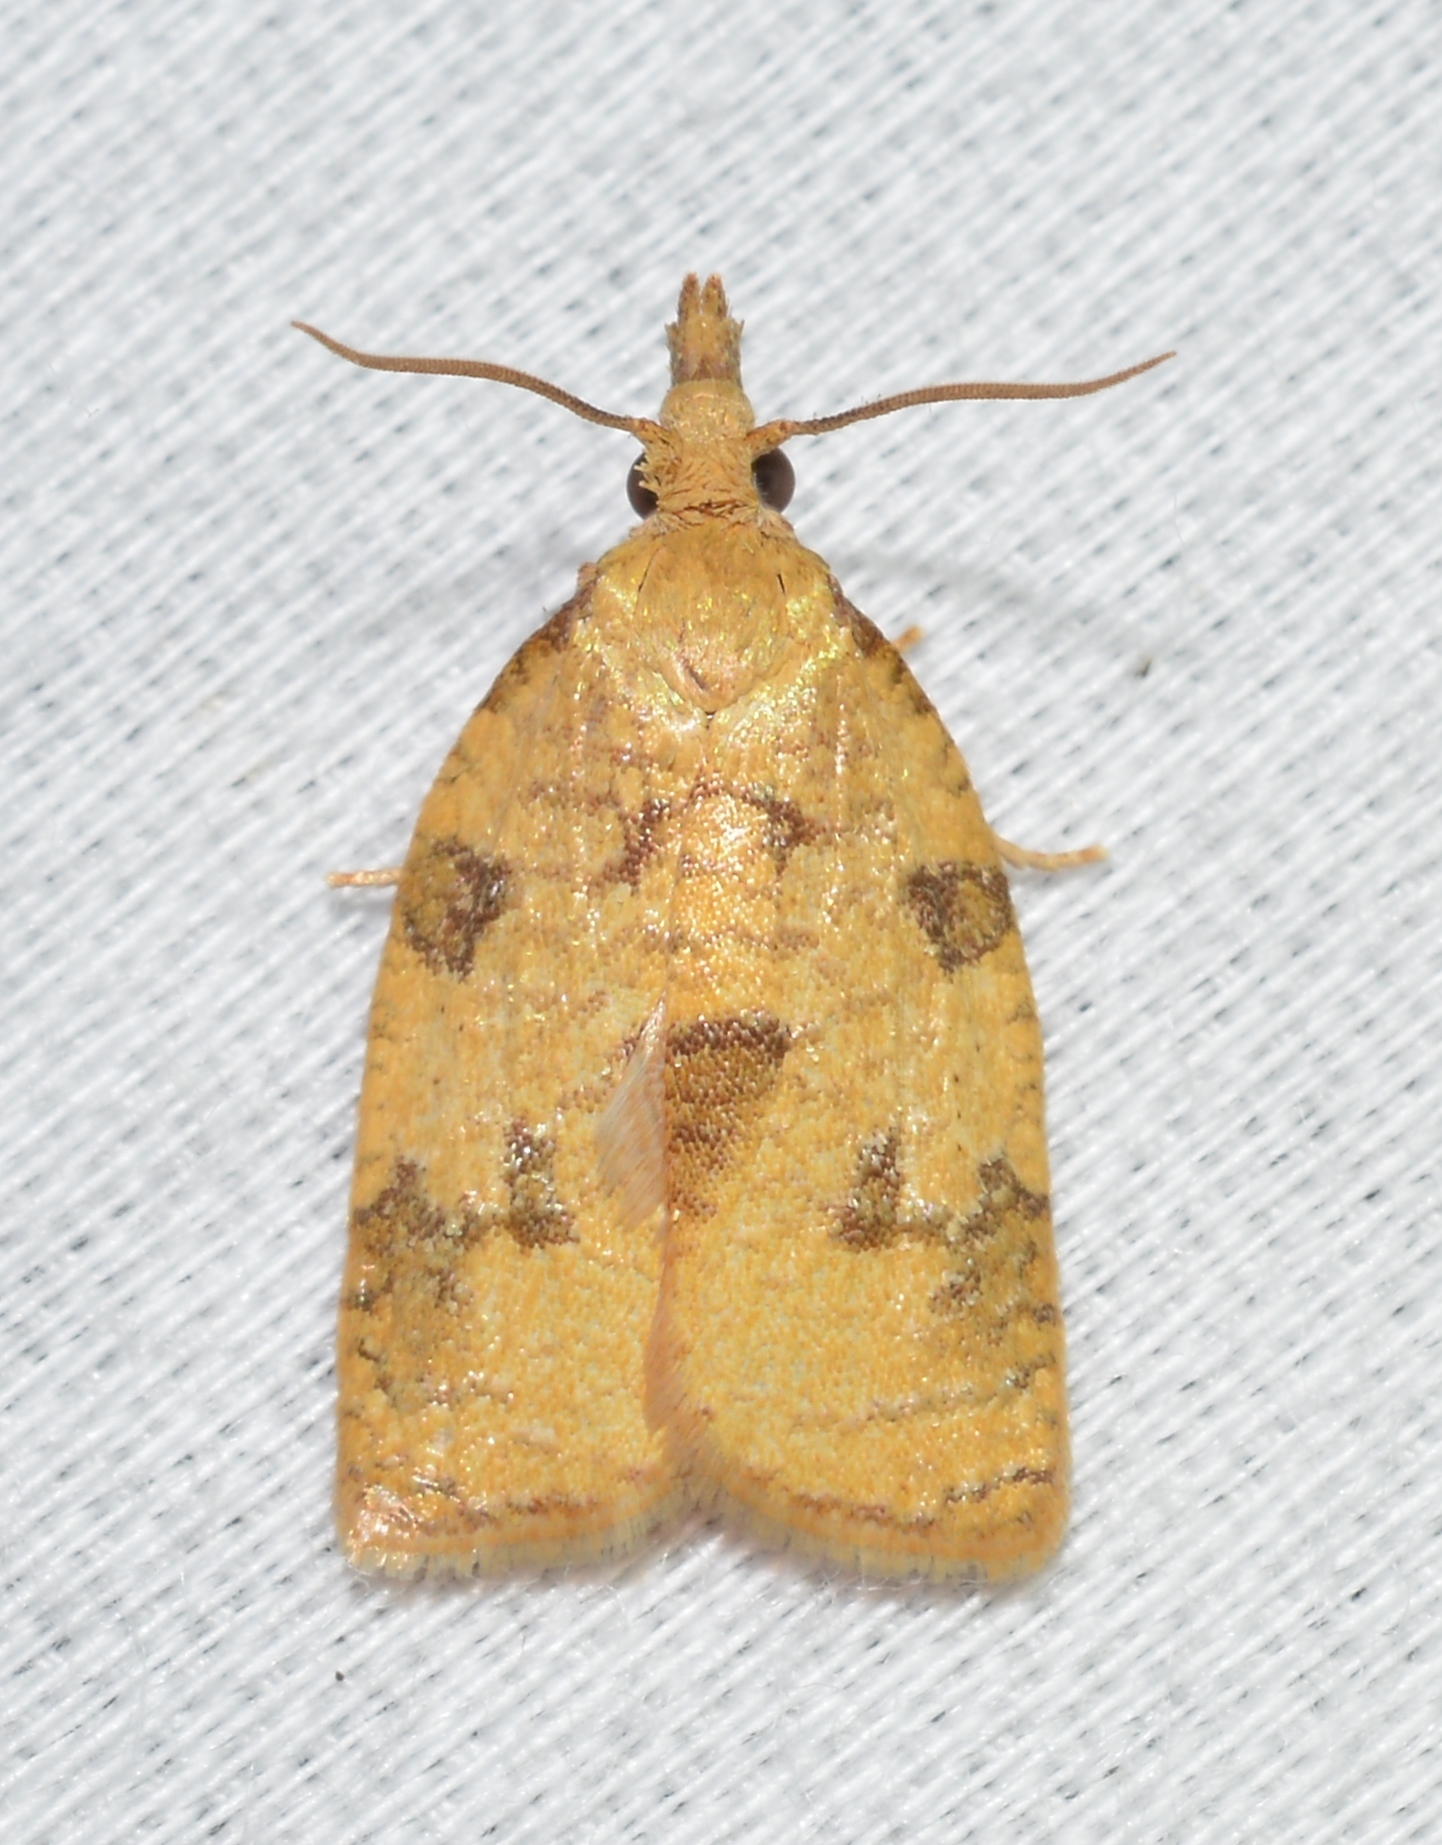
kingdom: Animalia
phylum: Arthropoda
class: Insecta
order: Lepidoptera
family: Tortricidae
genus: Cenopis
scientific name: Cenopis saracana
